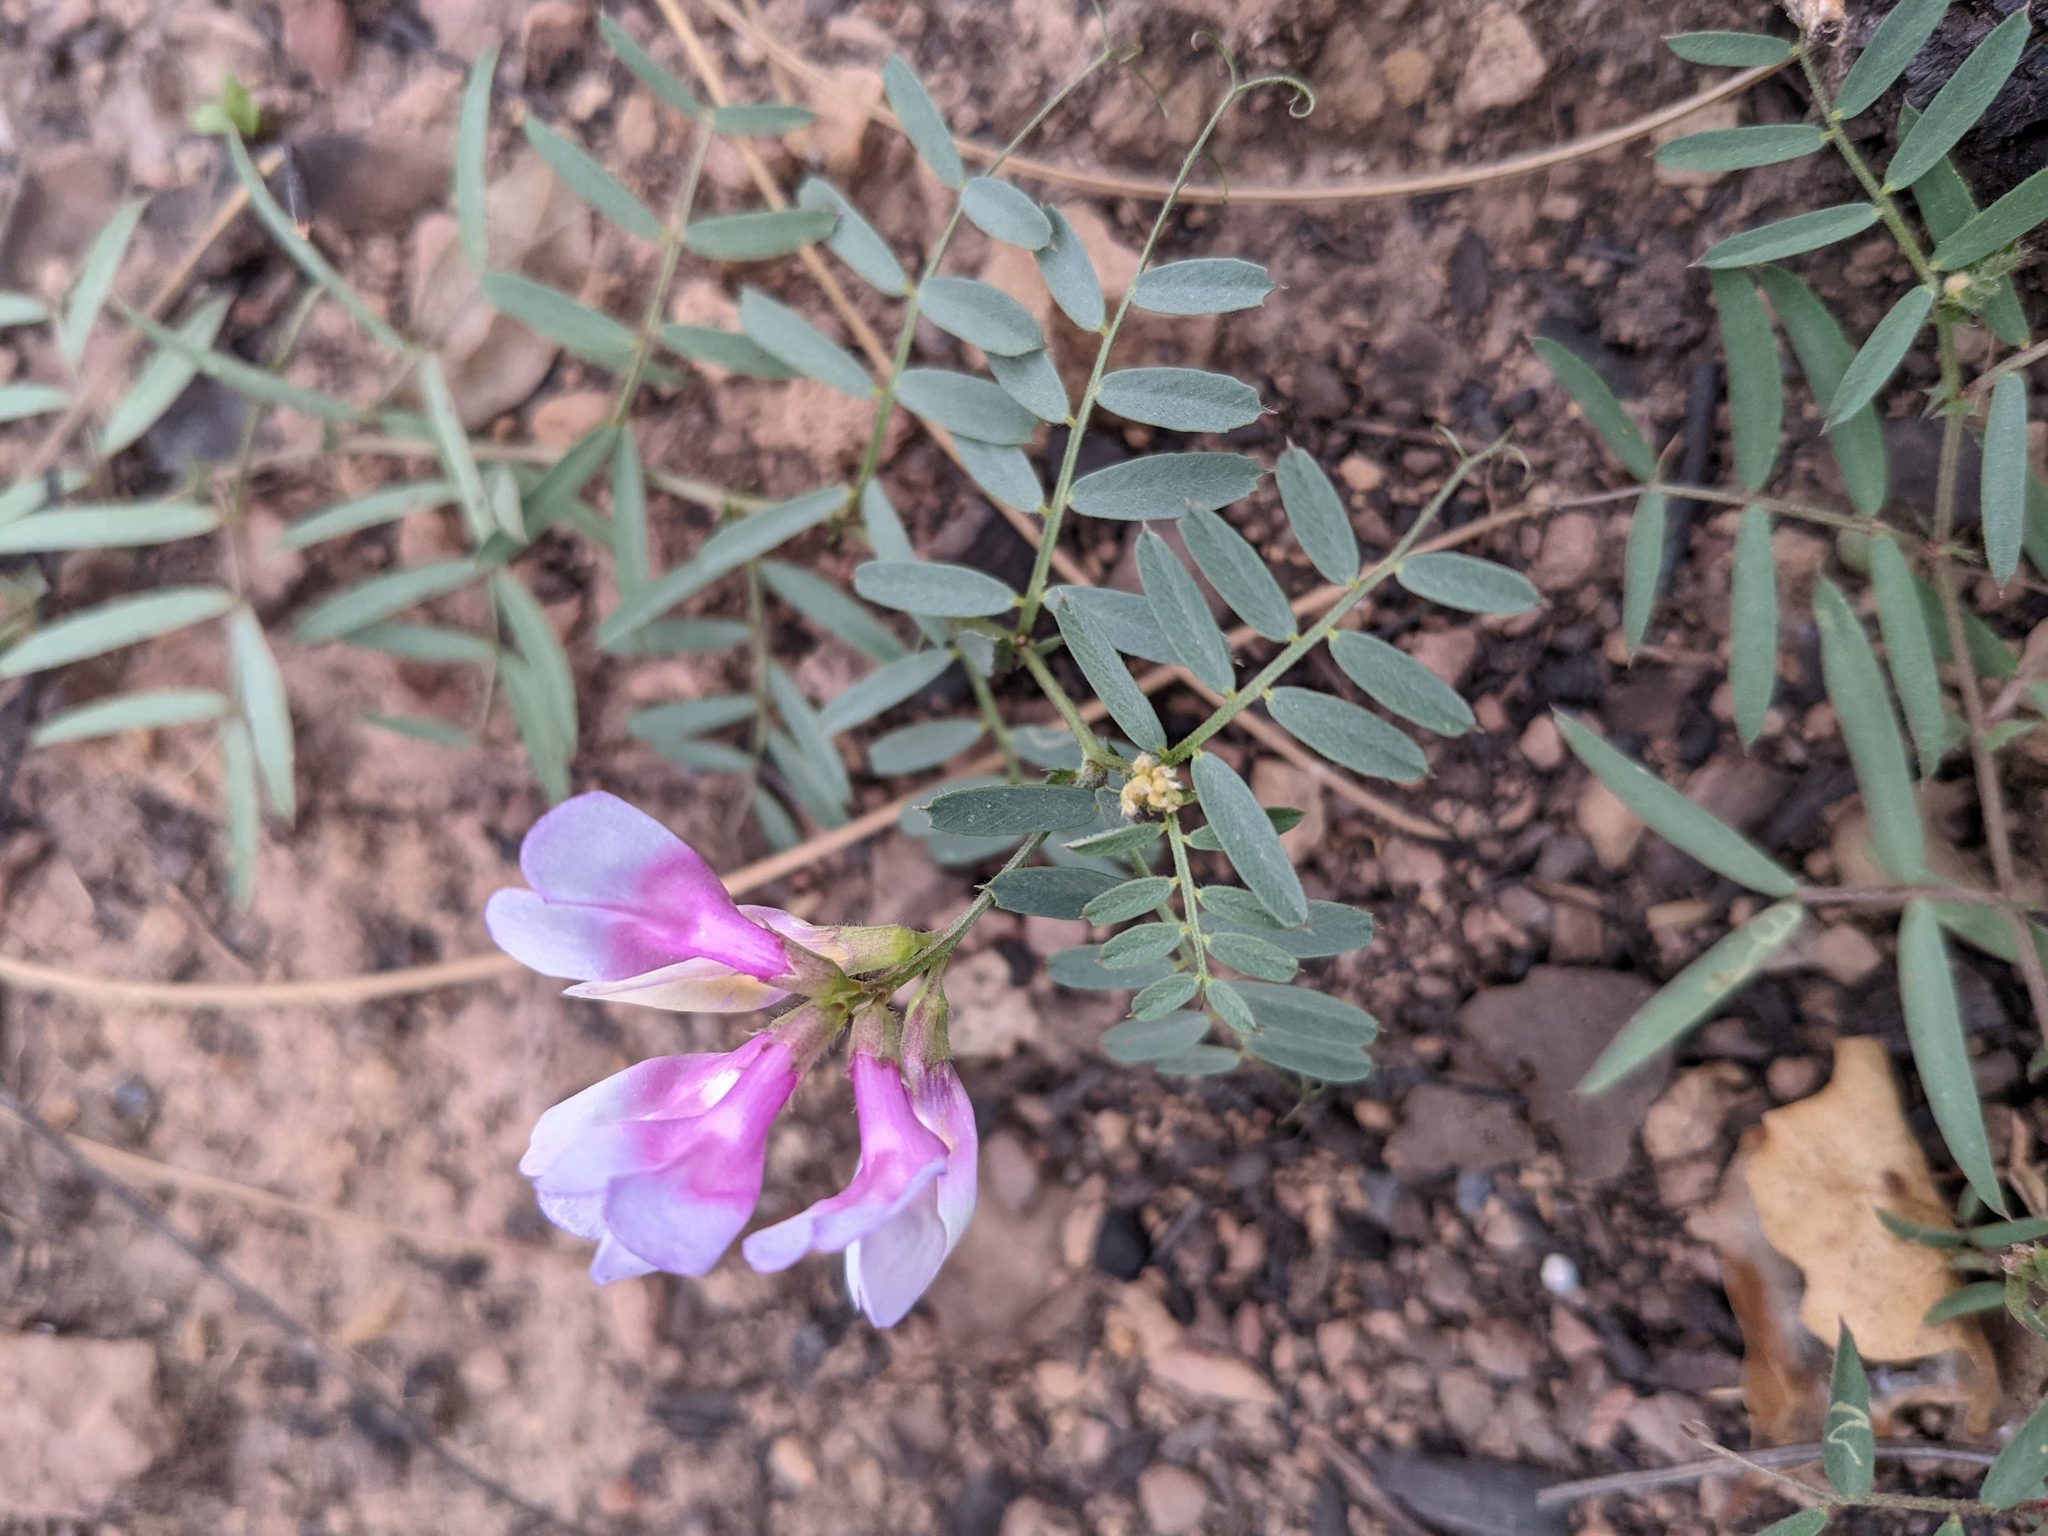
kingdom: Plantae
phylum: Tracheophyta
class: Magnoliopsida
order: Fabales
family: Fabaceae
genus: Vicia
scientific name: Vicia americana
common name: American vetch
